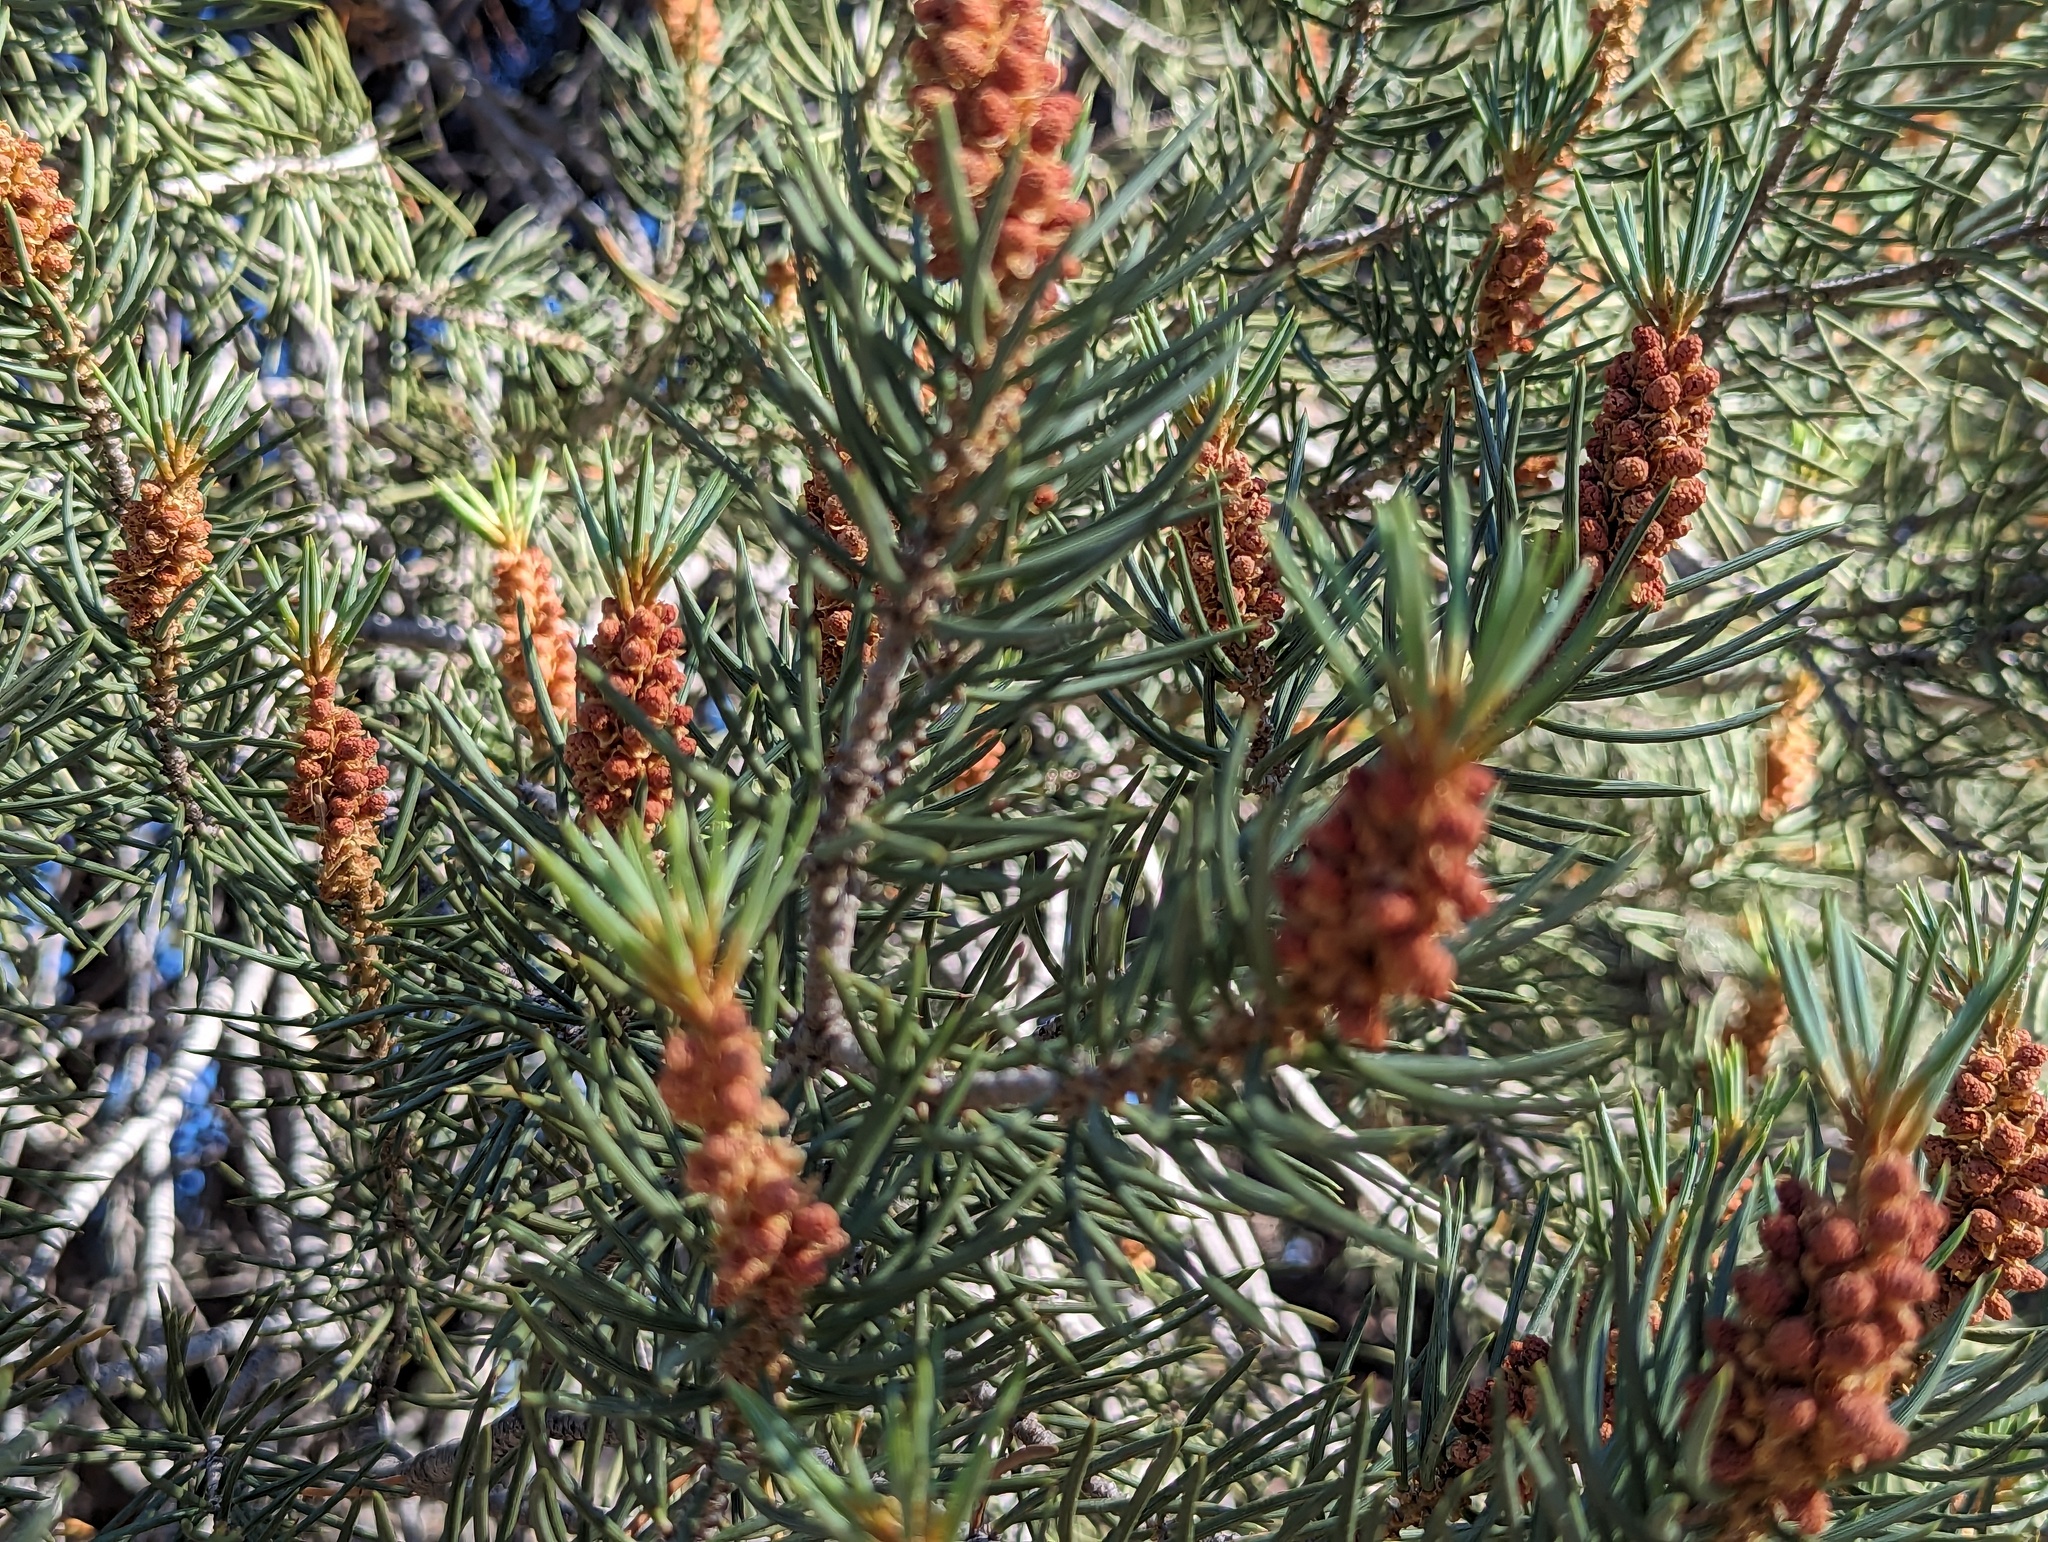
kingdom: Plantae
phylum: Tracheophyta
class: Pinopsida
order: Pinales
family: Pinaceae
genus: Pinus
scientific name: Pinus monophylla
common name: One-leaved nut pine
